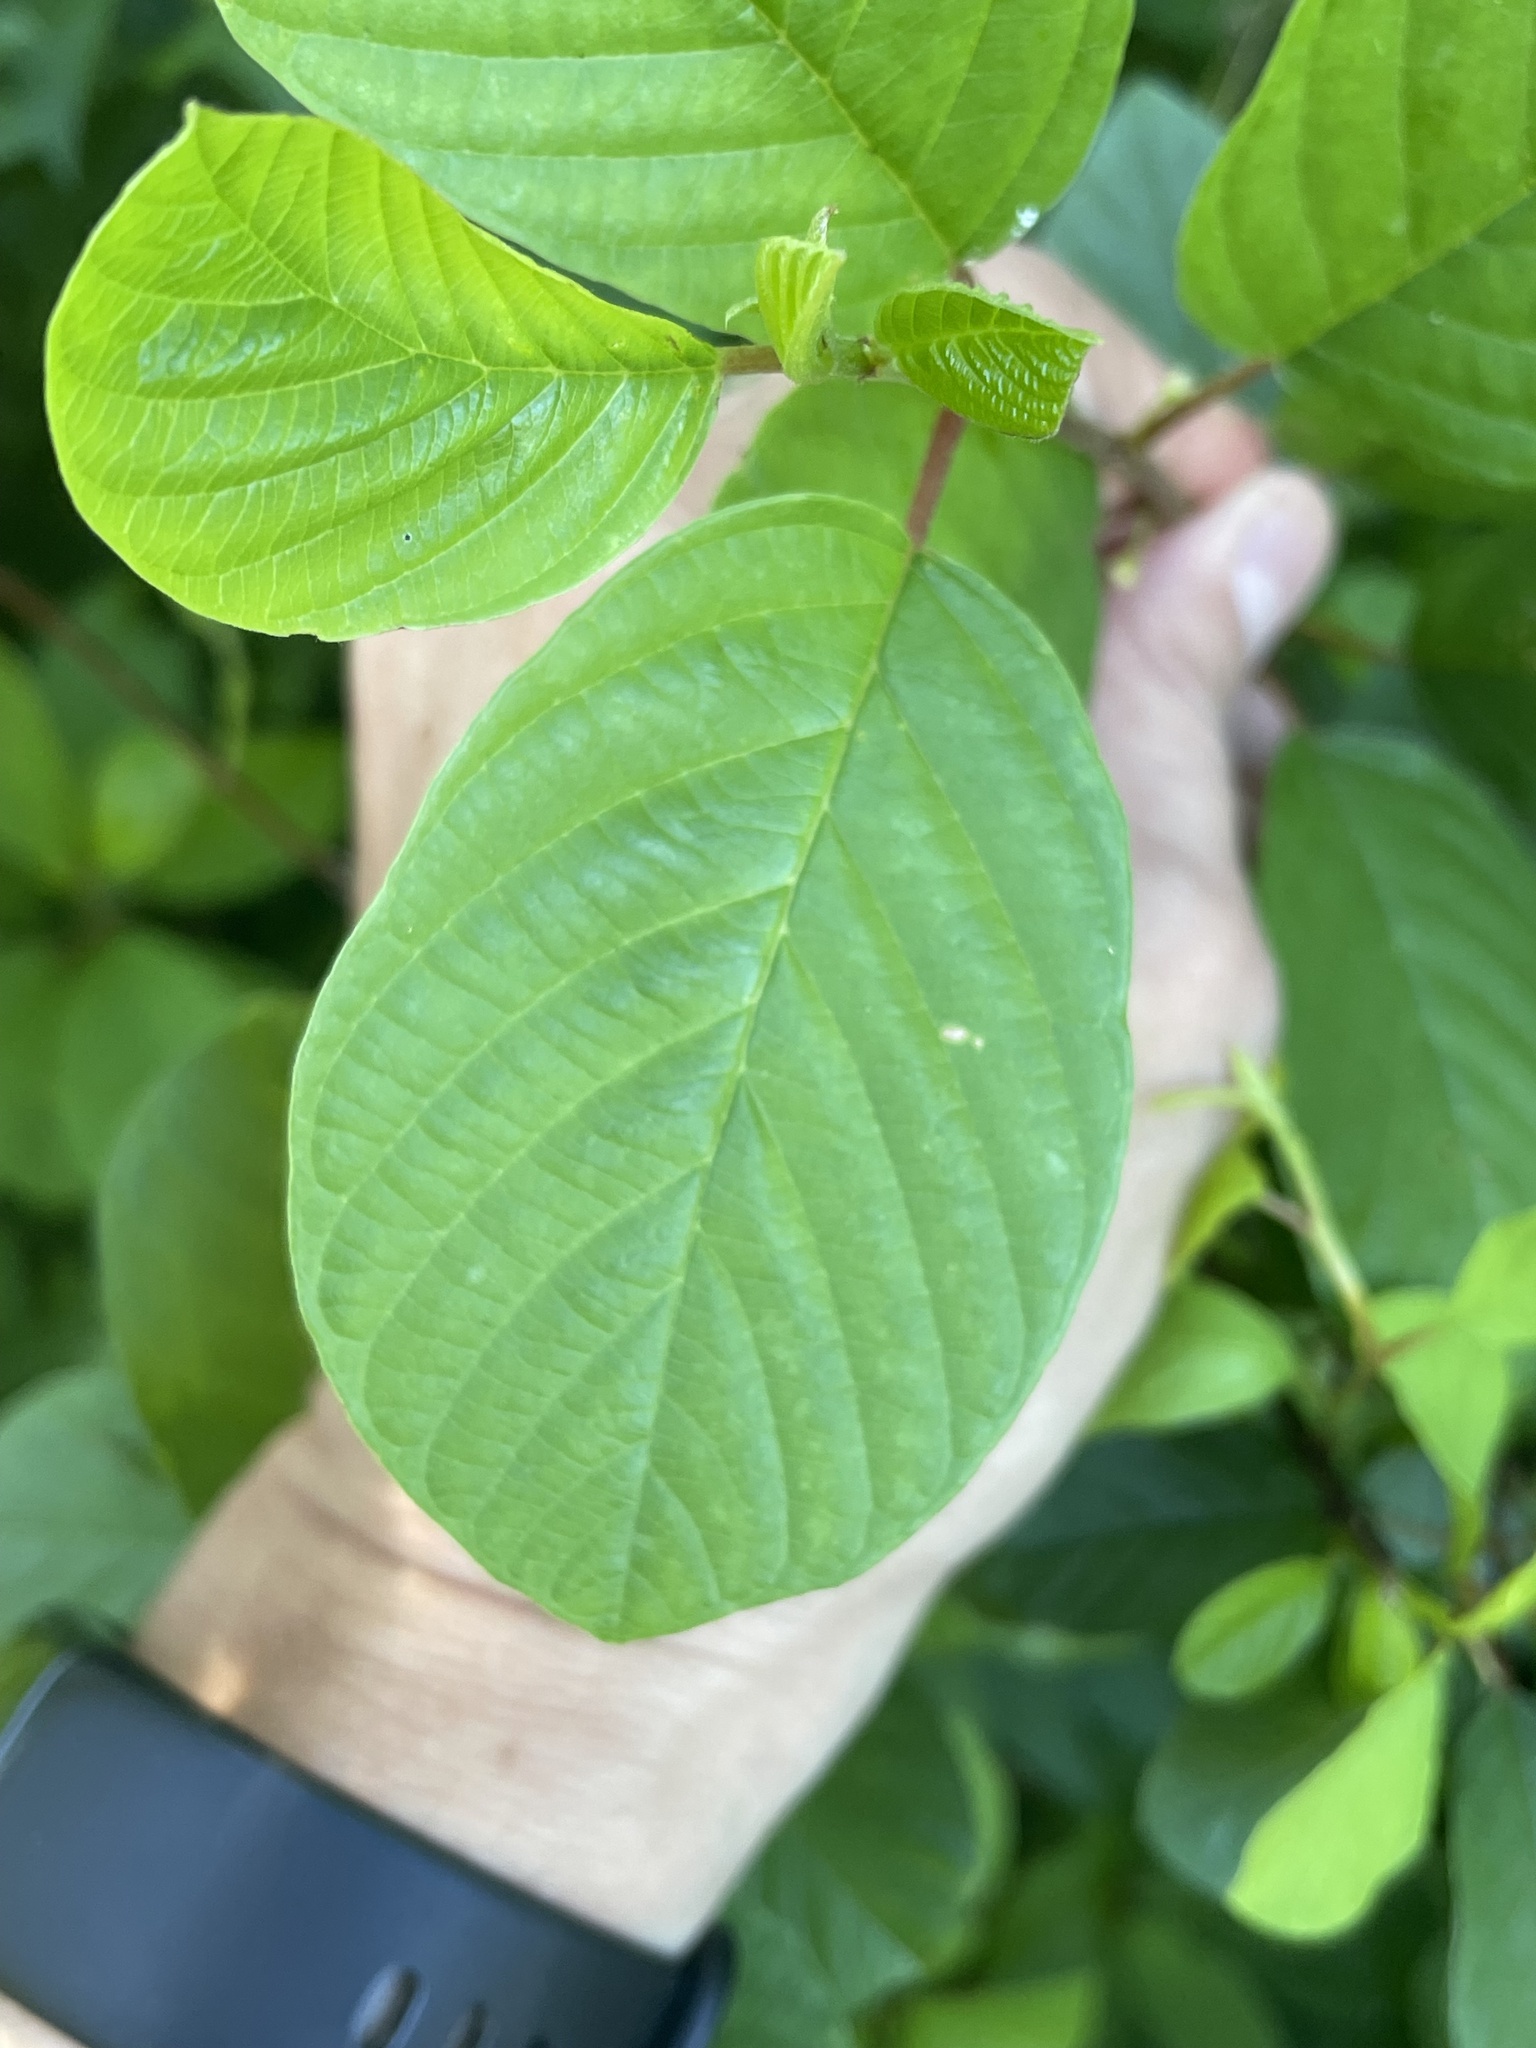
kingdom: Plantae
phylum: Tracheophyta
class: Magnoliopsida
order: Rosales
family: Rhamnaceae
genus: Frangula
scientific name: Frangula alnus
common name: Alder buckthorn
